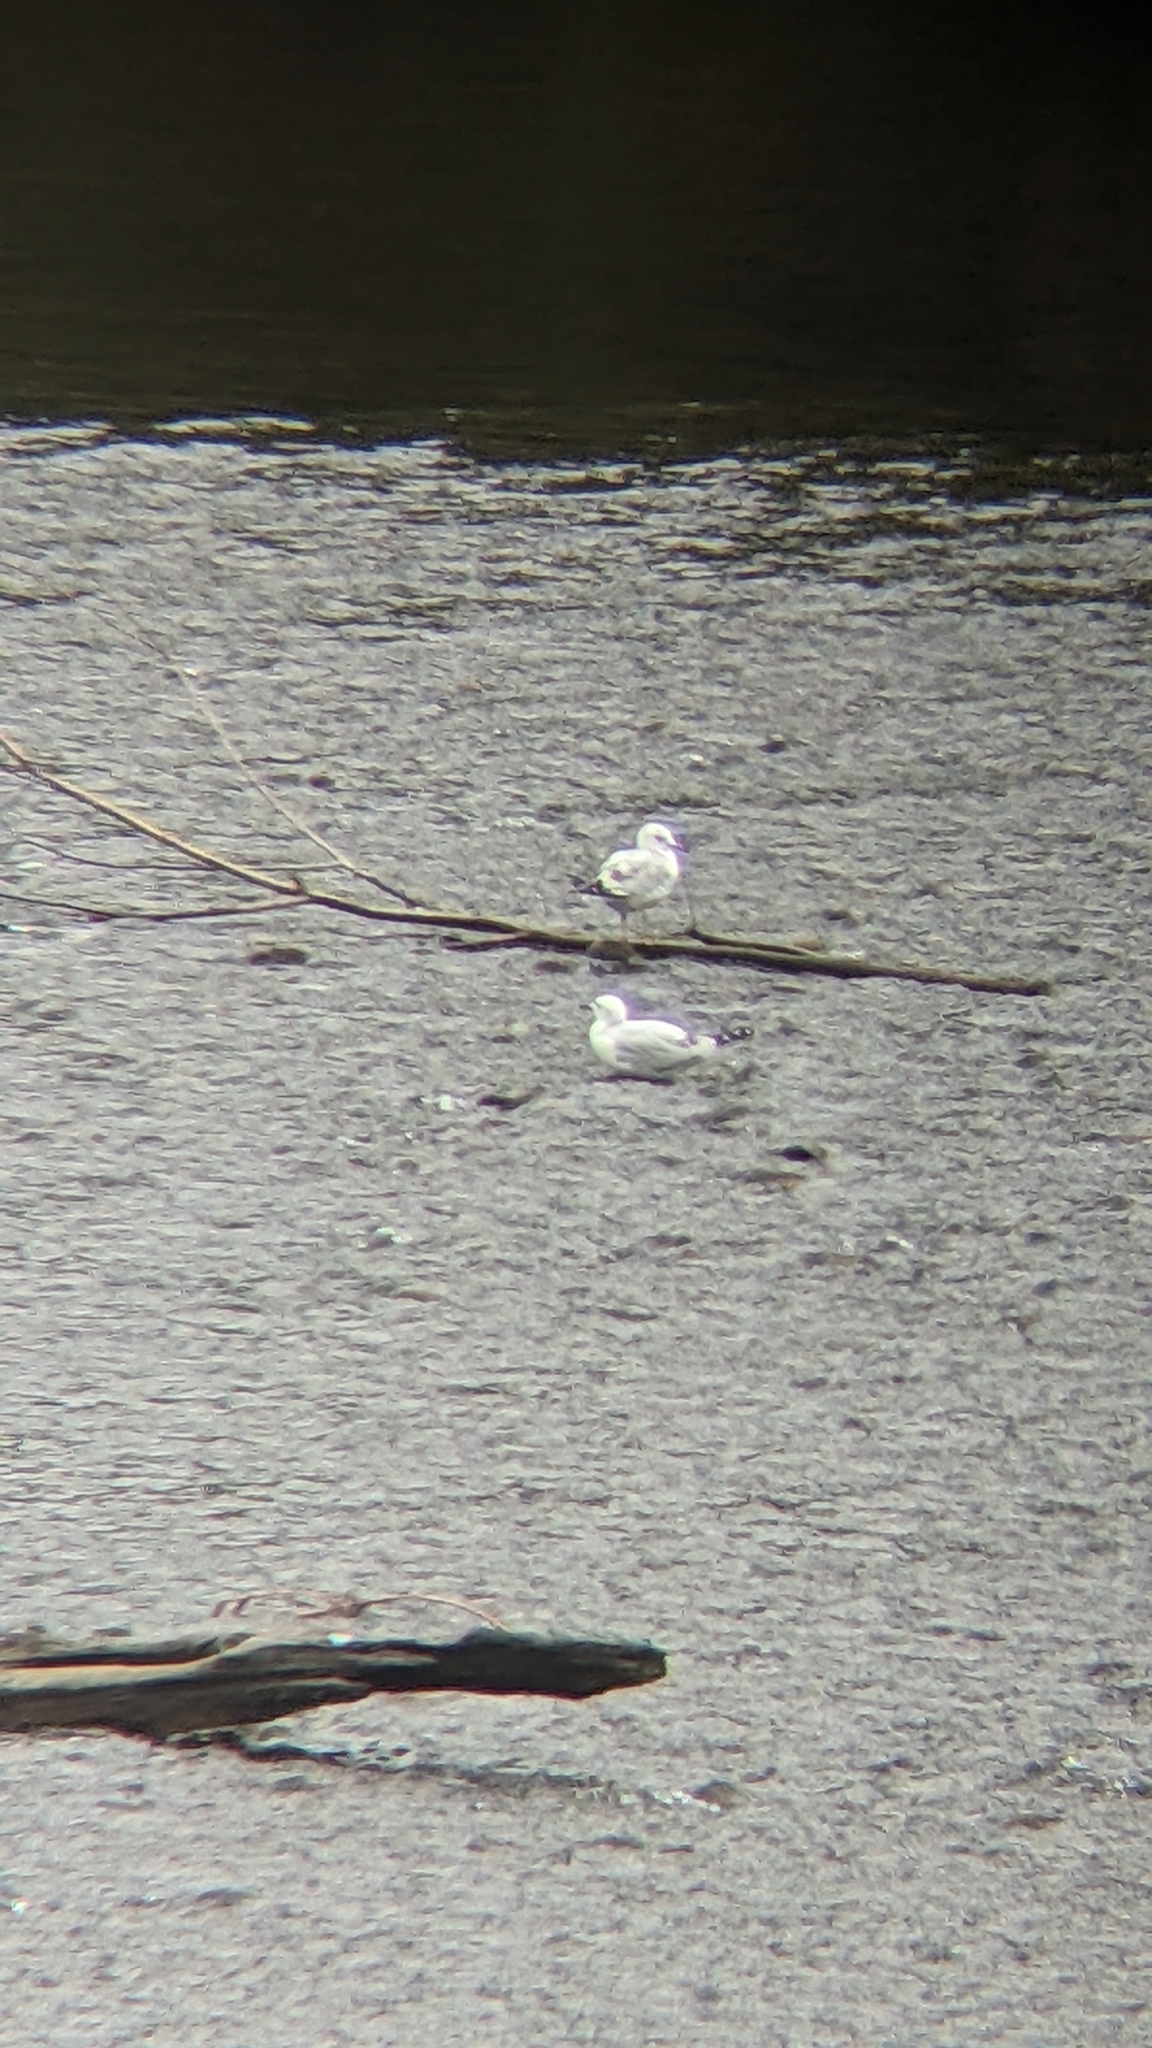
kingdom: Animalia
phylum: Chordata
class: Aves
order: Charadriiformes
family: Laridae
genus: Chroicocephalus
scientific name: Chroicocephalus novaehollandiae
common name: Silver gull
